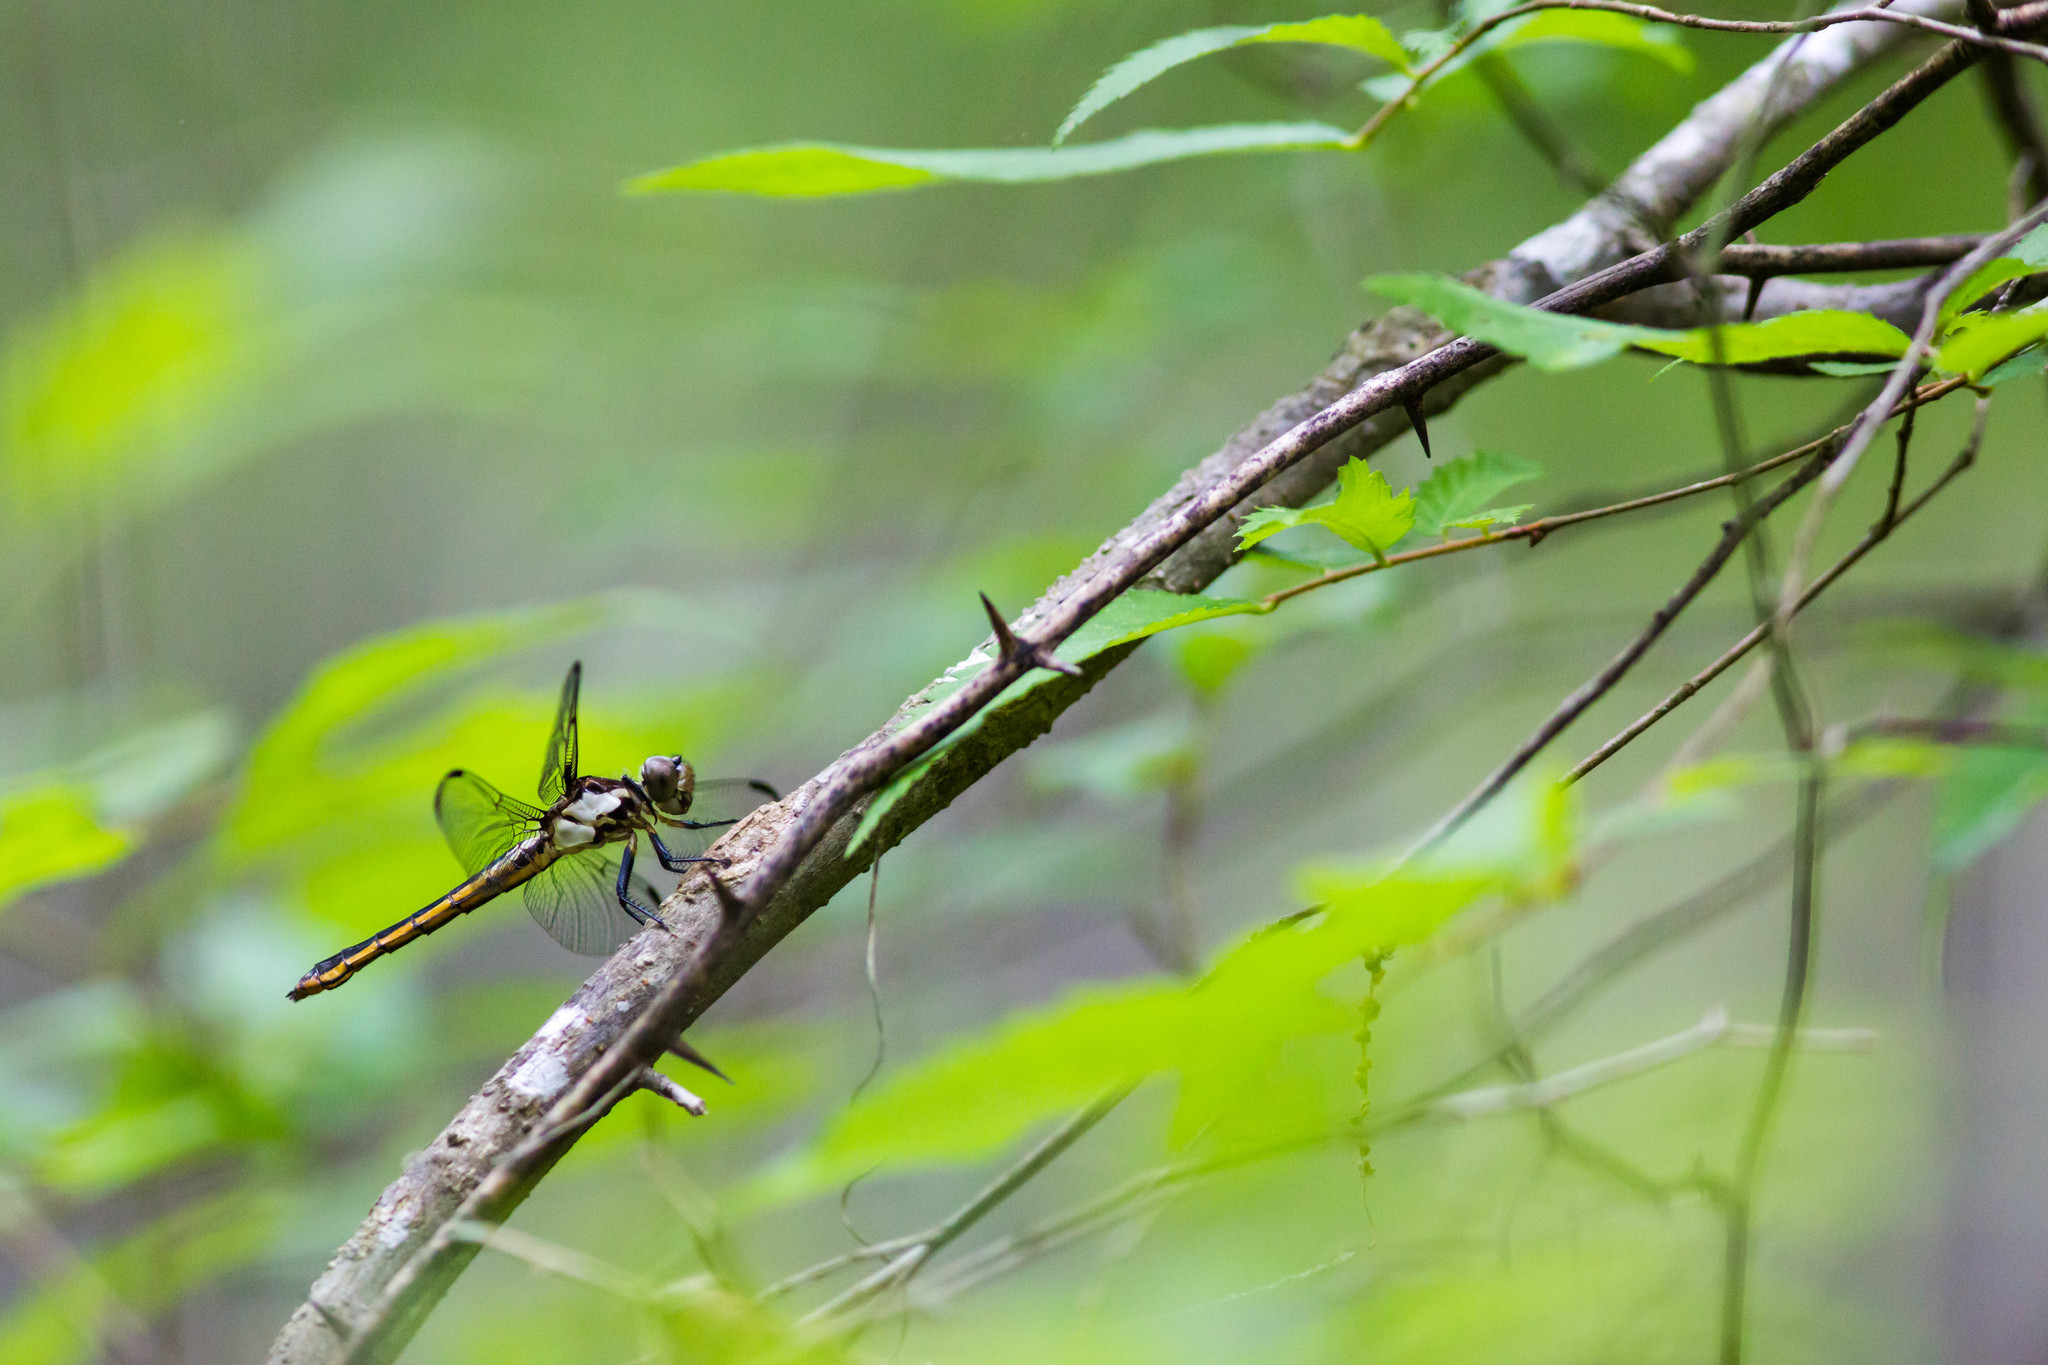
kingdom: Animalia
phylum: Arthropoda
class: Insecta
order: Odonata
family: Libellulidae
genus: Libellula
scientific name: Libellula incesta
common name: Slaty skimmer
